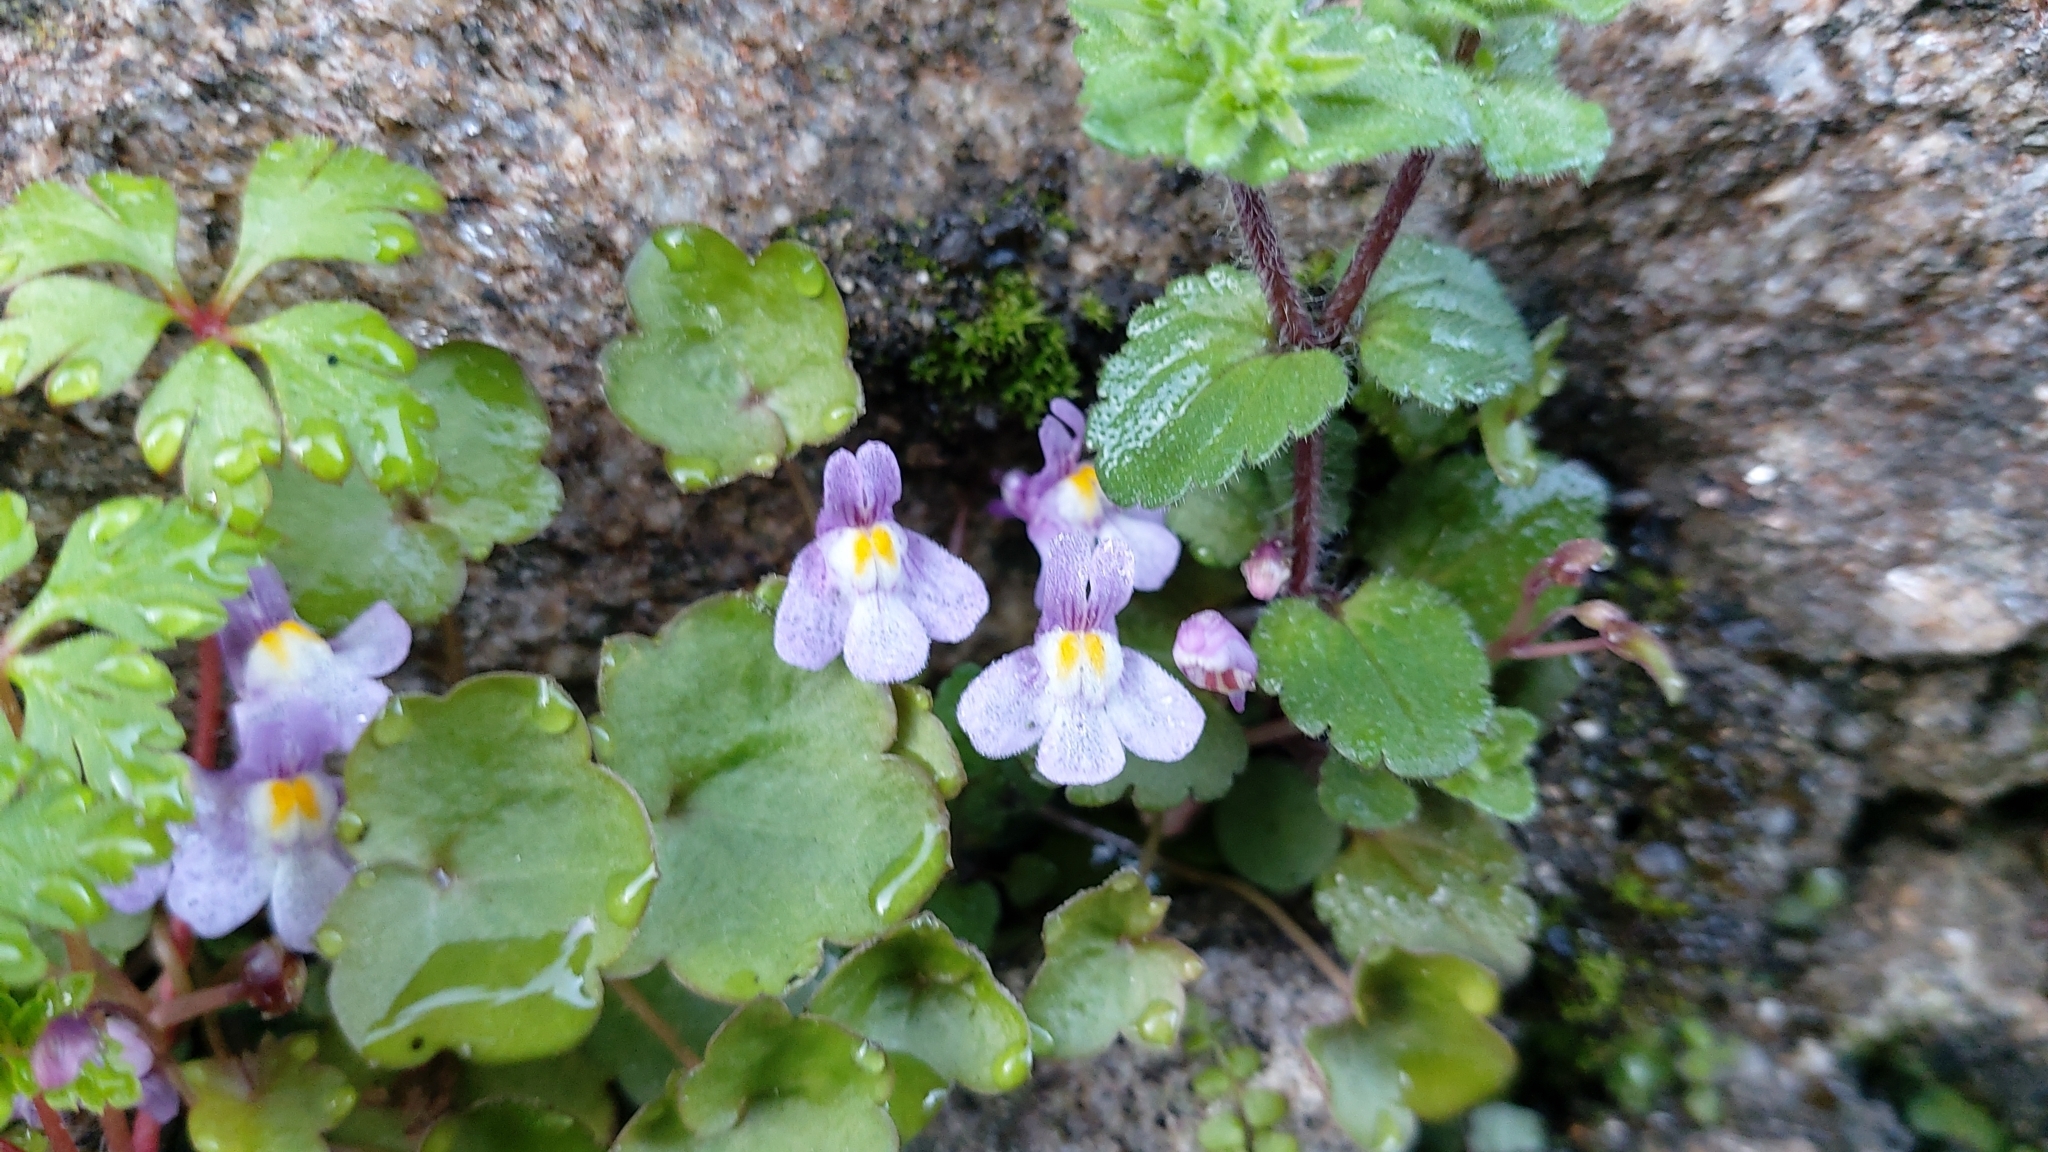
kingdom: Plantae
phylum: Tracheophyta
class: Magnoliopsida
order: Lamiales
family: Plantaginaceae
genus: Cymbalaria
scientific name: Cymbalaria muralis
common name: Ivy-leaved toadflax
